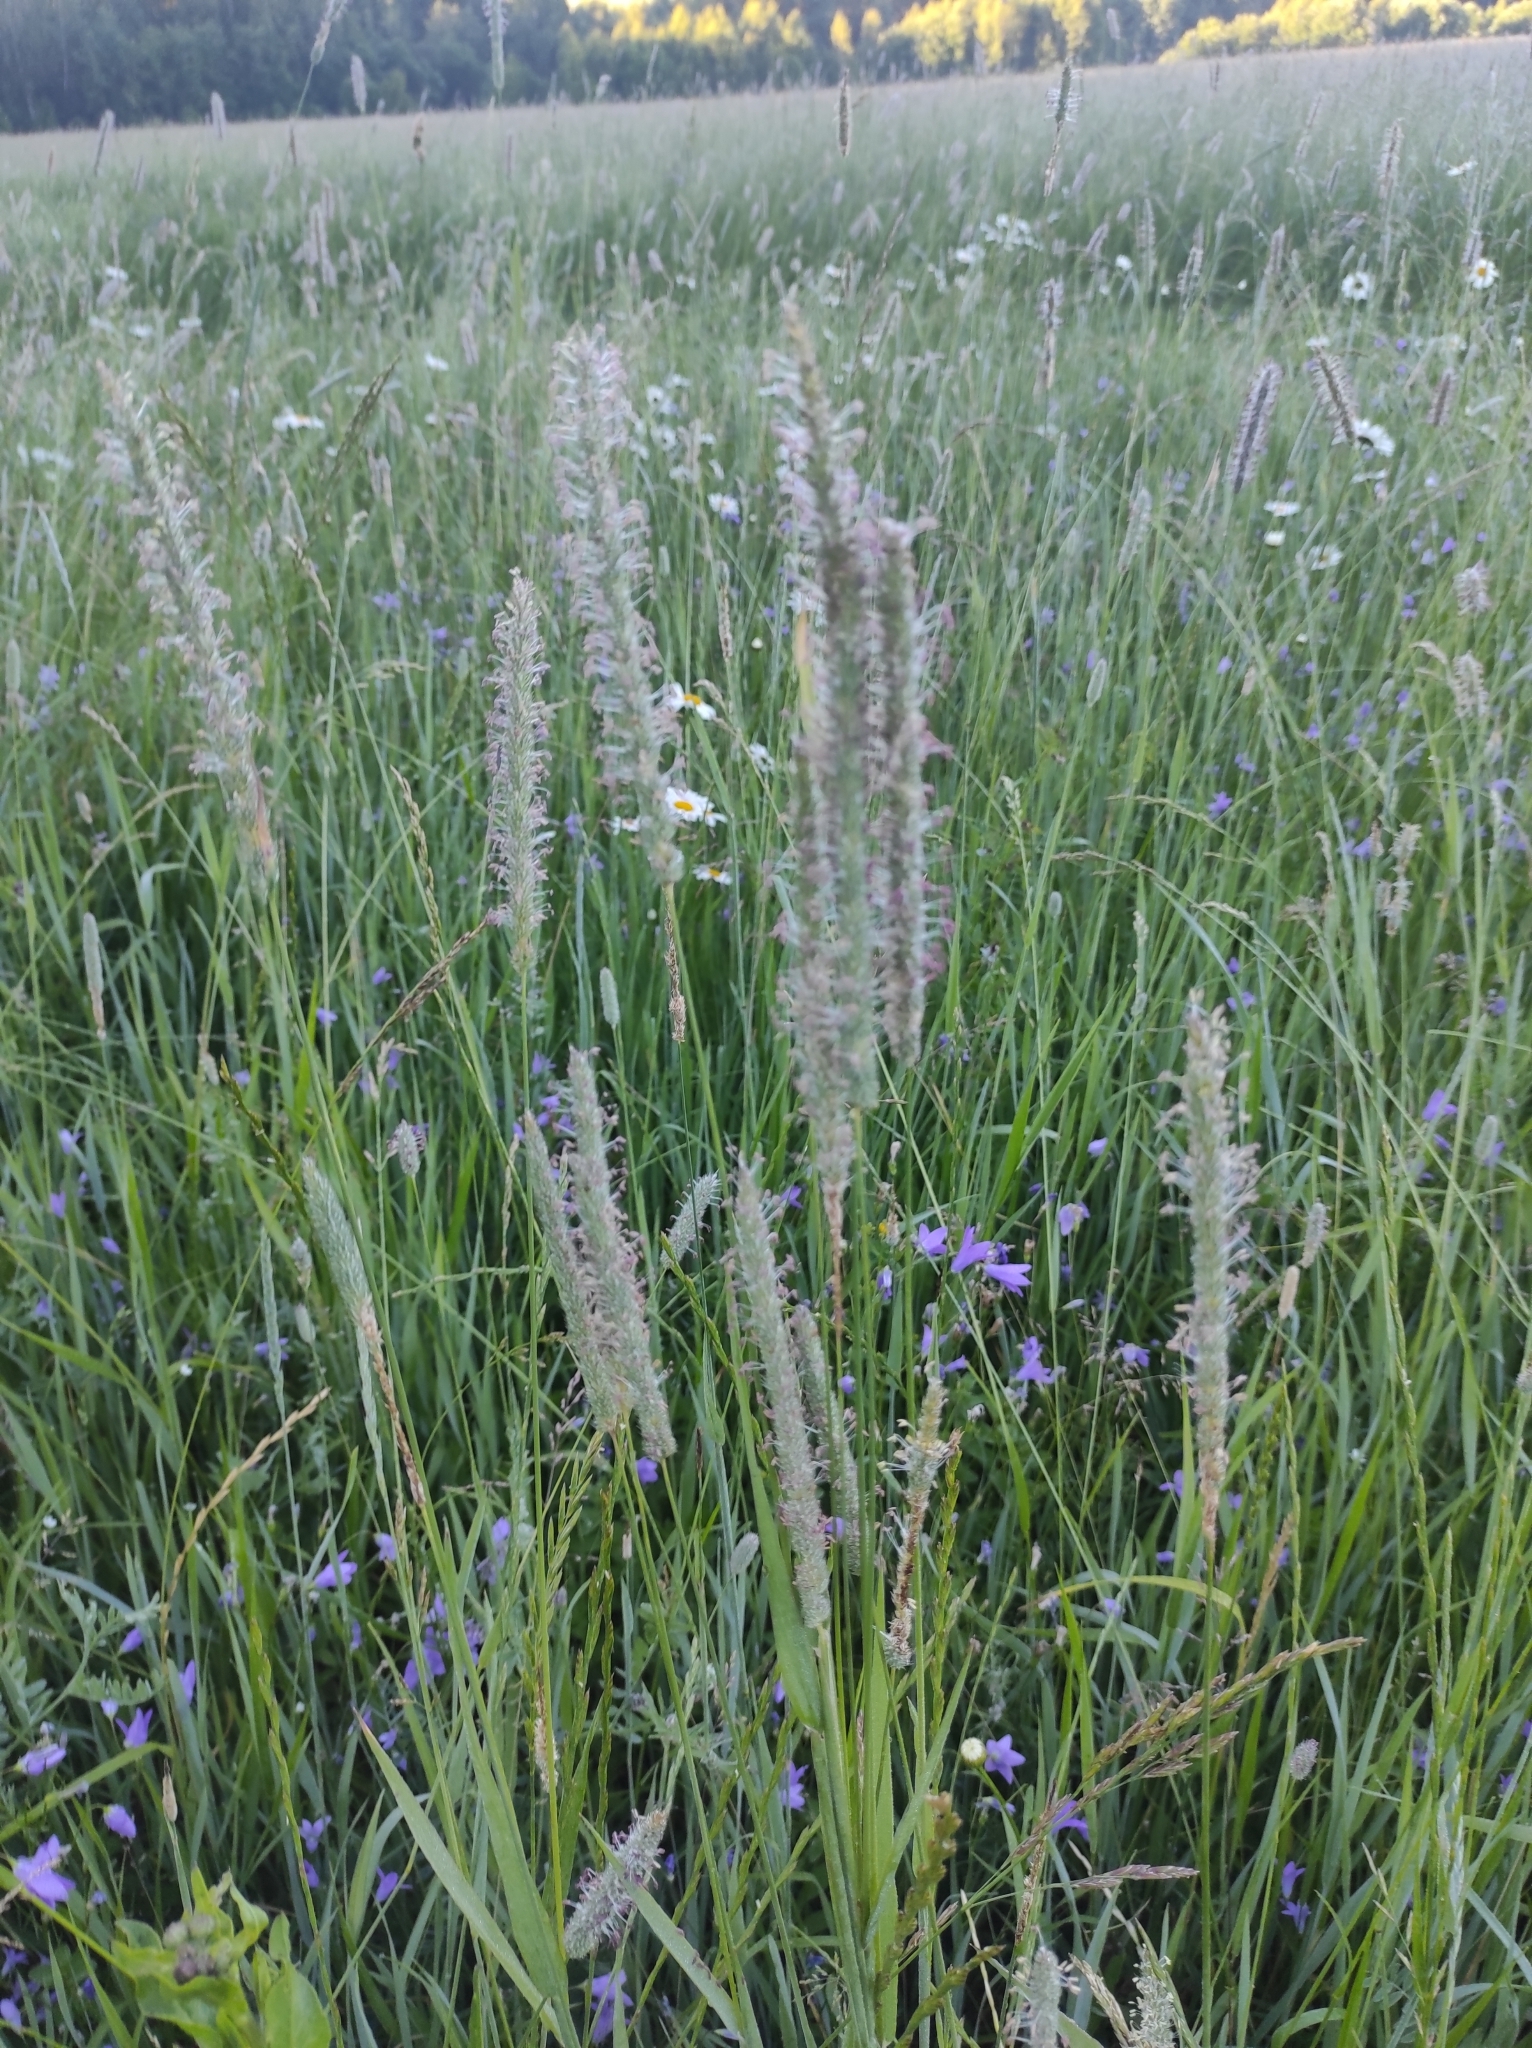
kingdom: Plantae
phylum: Tracheophyta
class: Liliopsida
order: Poales
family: Poaceae
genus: Phleum
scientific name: Phleum pratense
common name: Timothy grass
